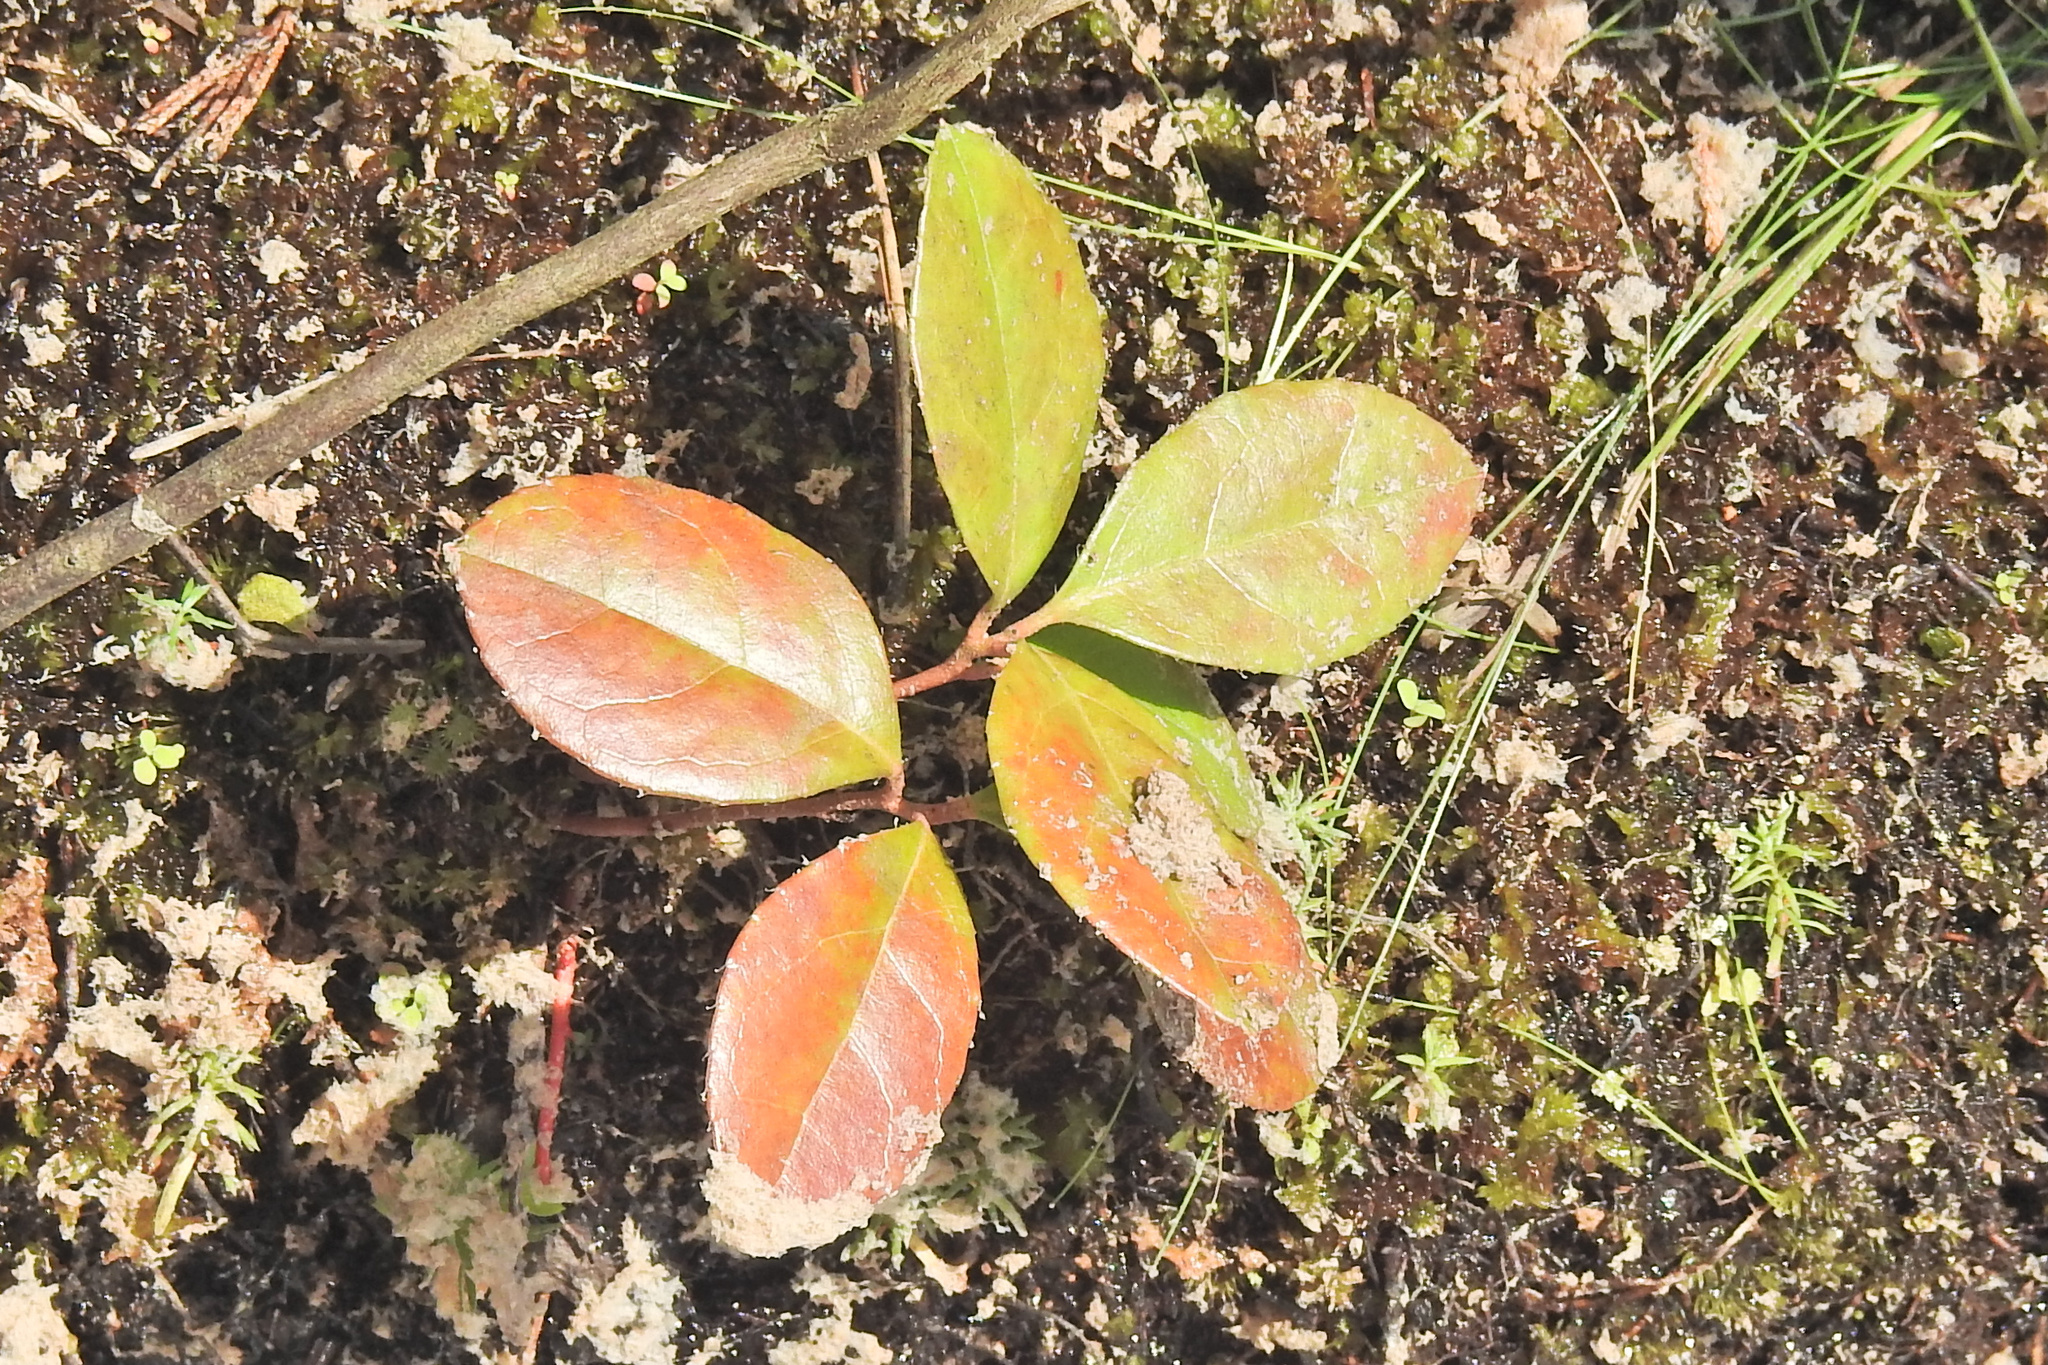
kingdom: Plantae
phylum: Tracheophyta
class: Magnoliopsida
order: Ericales
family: Ericaceae
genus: Gaultheria
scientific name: Gaultheria procumbens
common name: Checkerberry
